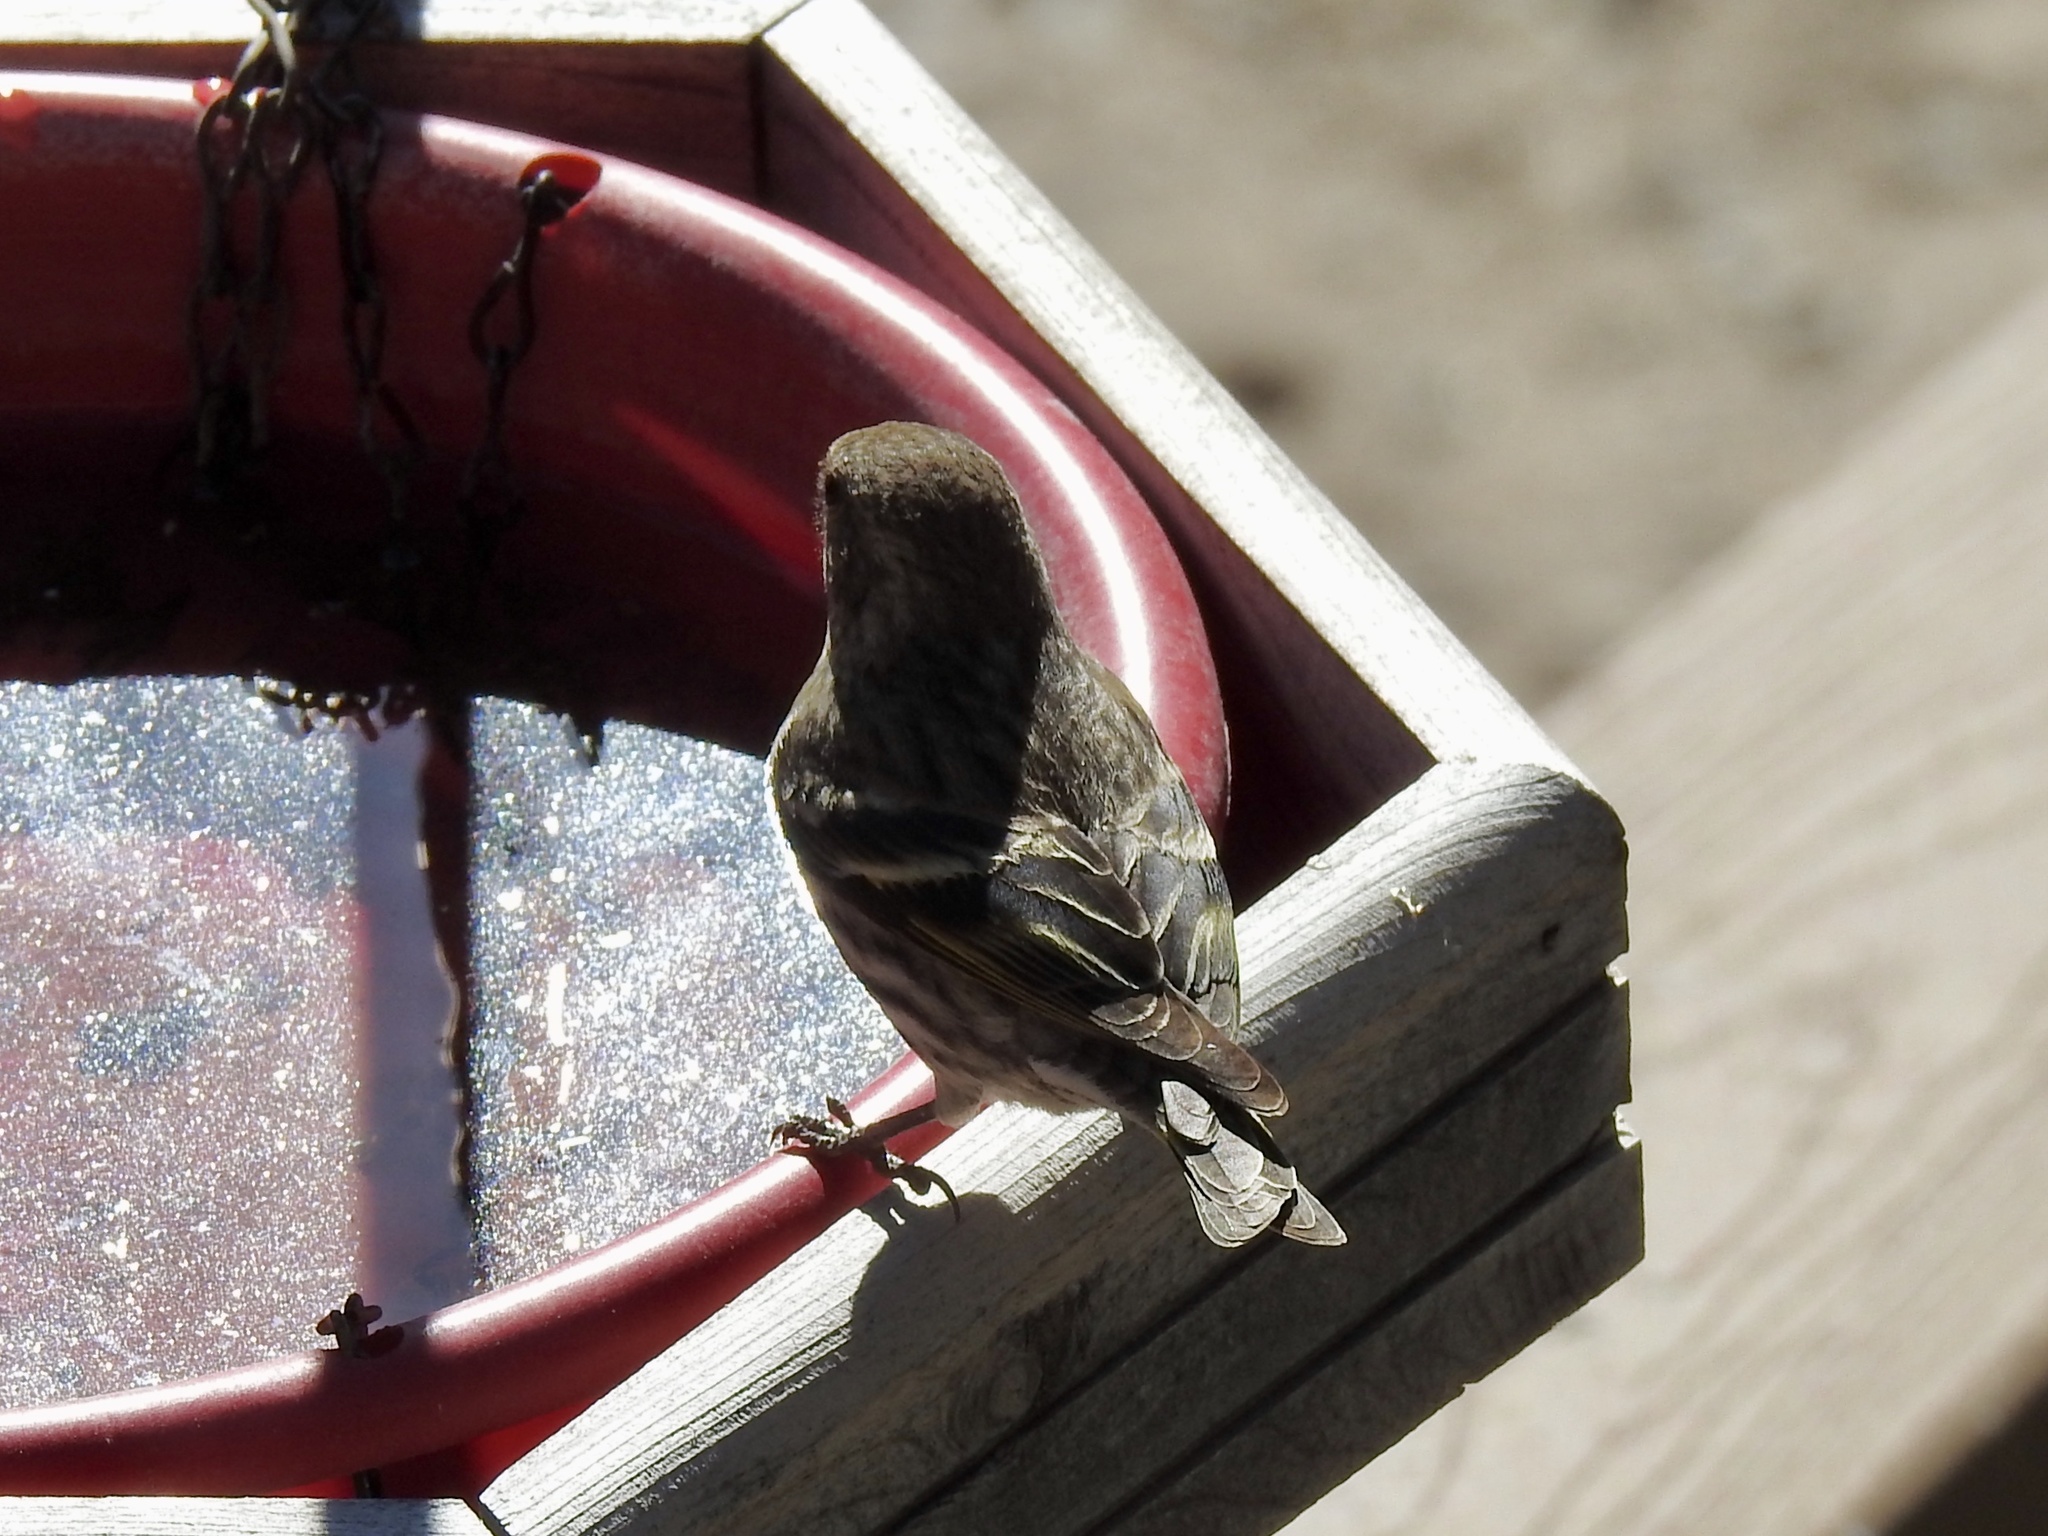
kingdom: Animalia
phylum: Chordata
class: Aves
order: Passeriformes
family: Fringillidae
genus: Spinus
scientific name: Spinus pinus
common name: Pine siskin
